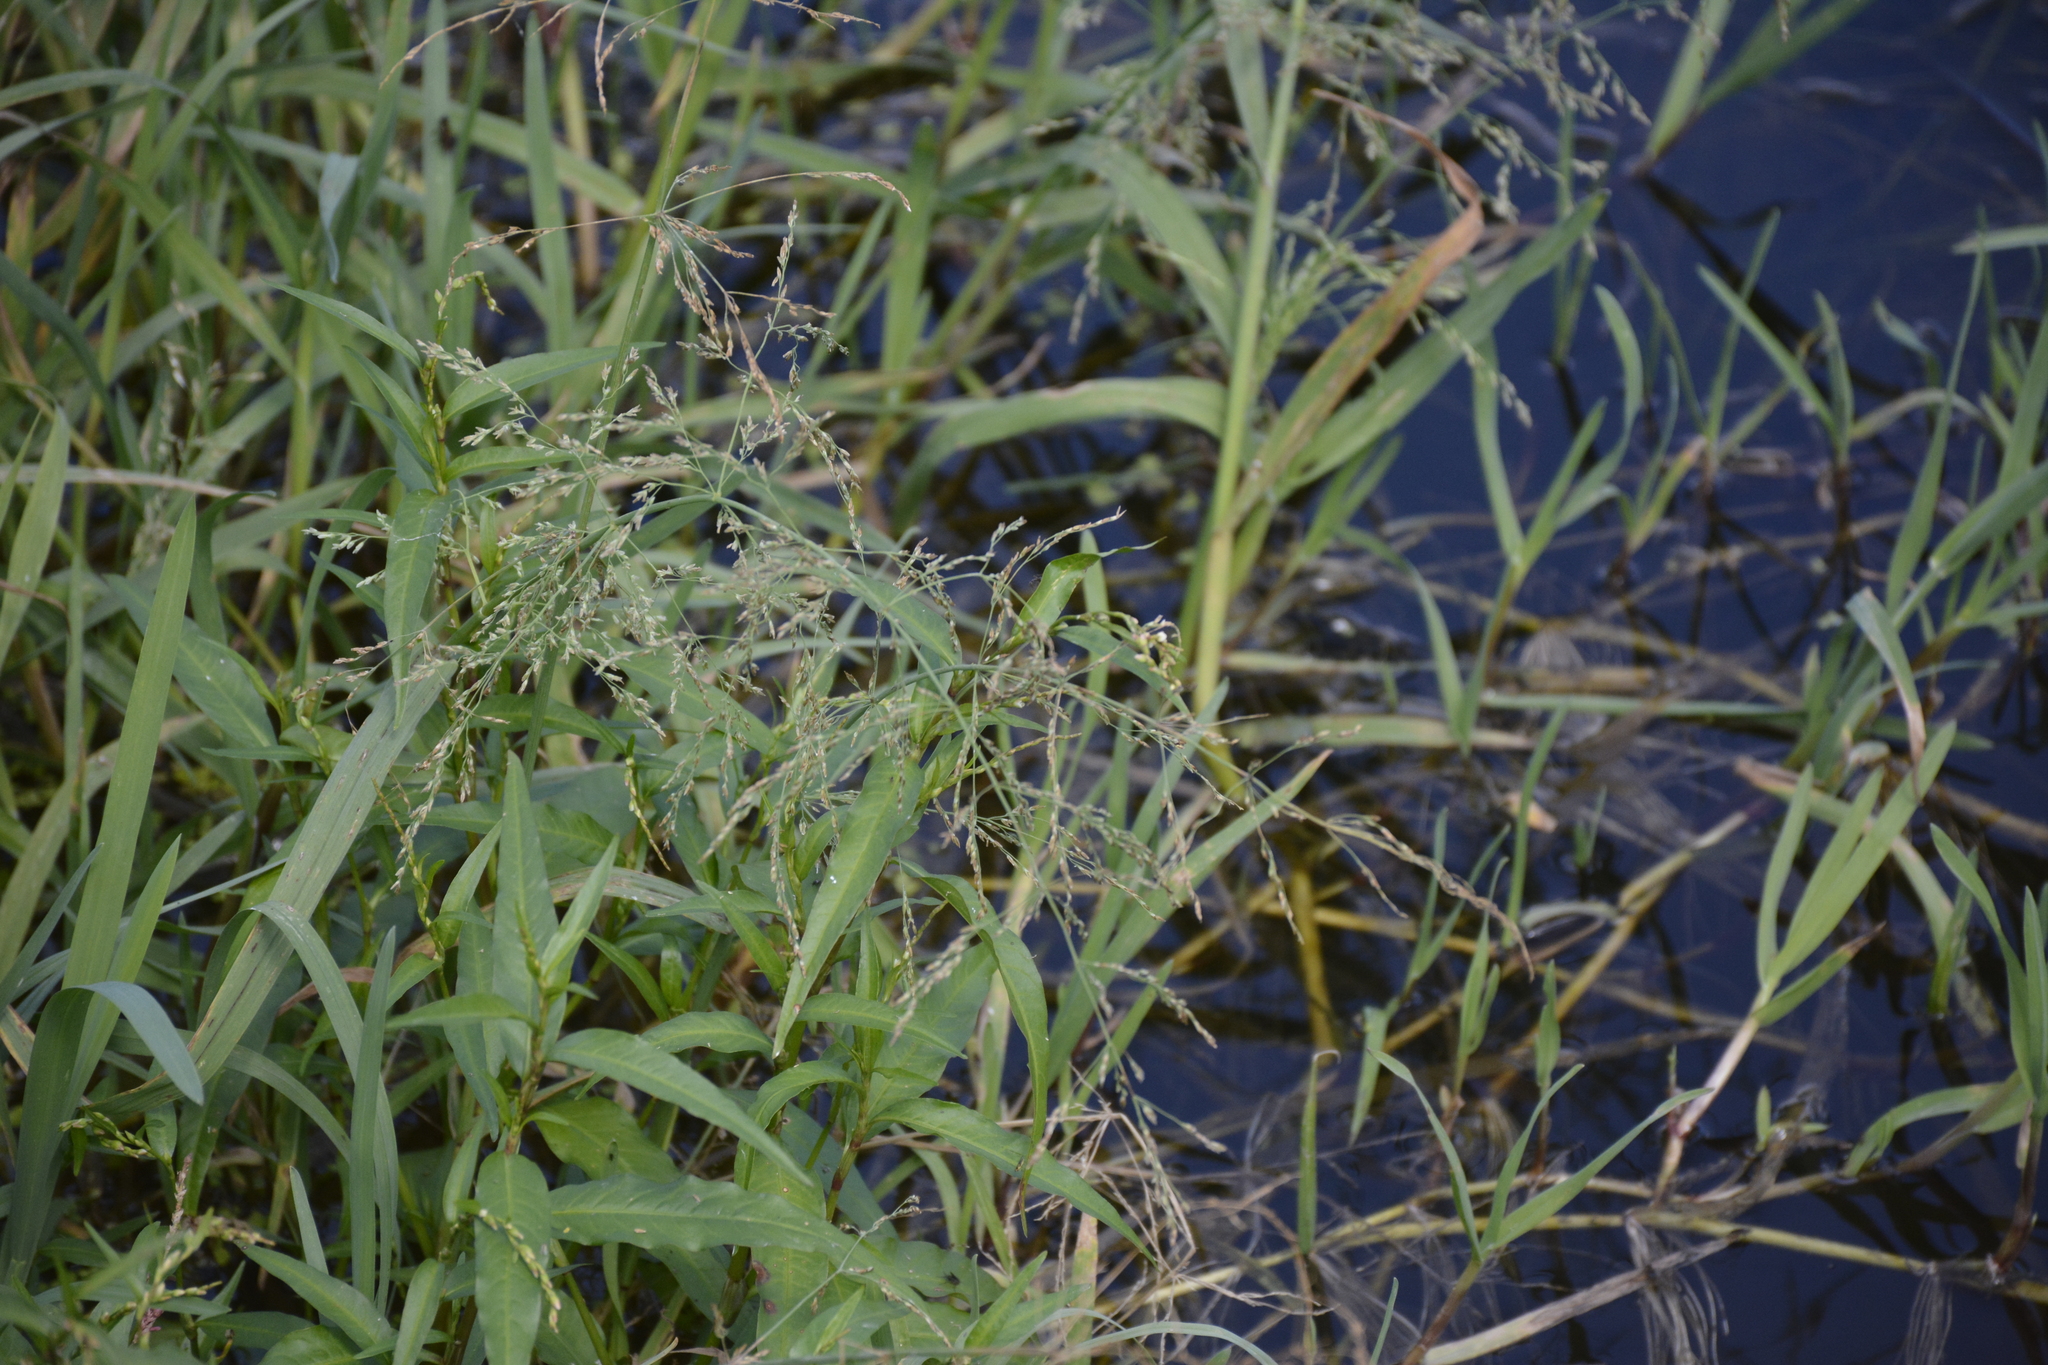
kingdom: Plantae
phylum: Tracheophyta
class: Liliopsida
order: Poales
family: Poaceae
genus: Catabrosa
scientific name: Catabrosa aquatica
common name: Whorl-grass
